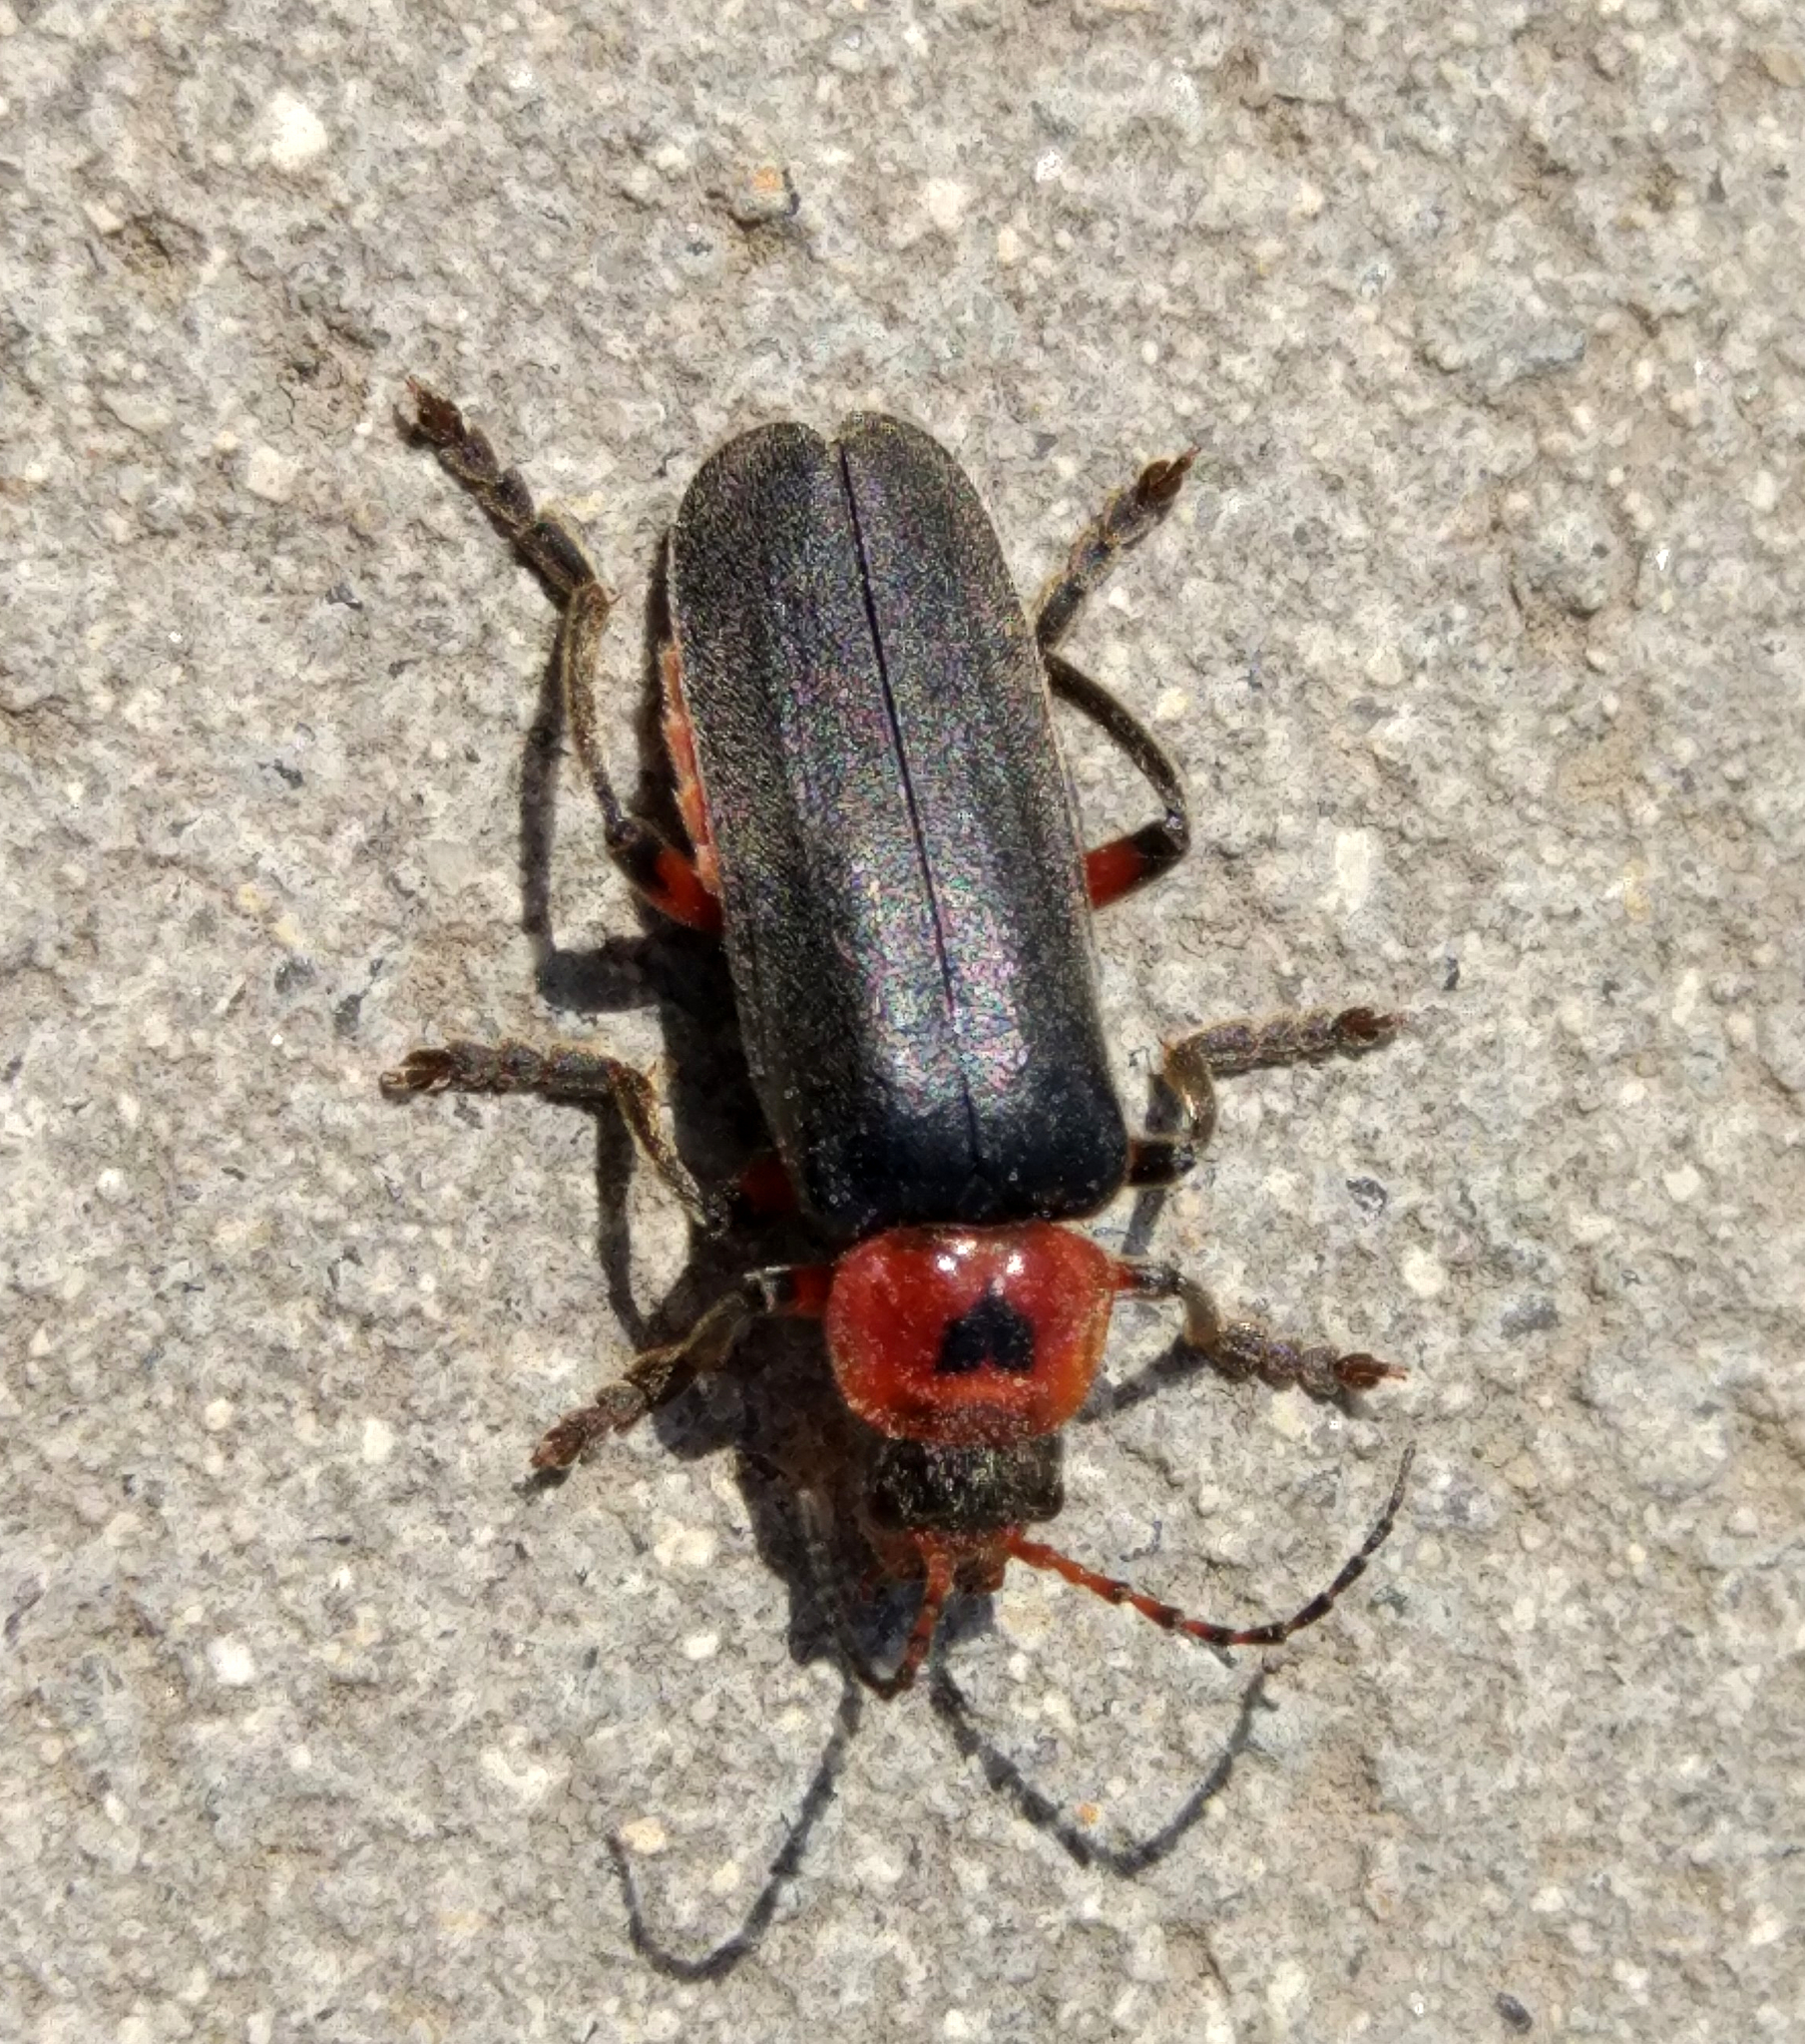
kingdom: Animalia
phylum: Arthropoda
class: Insecta
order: Coleoptera
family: Cantharidae
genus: Cantharis
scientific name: Cantharis rustica
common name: Soldier beetle
